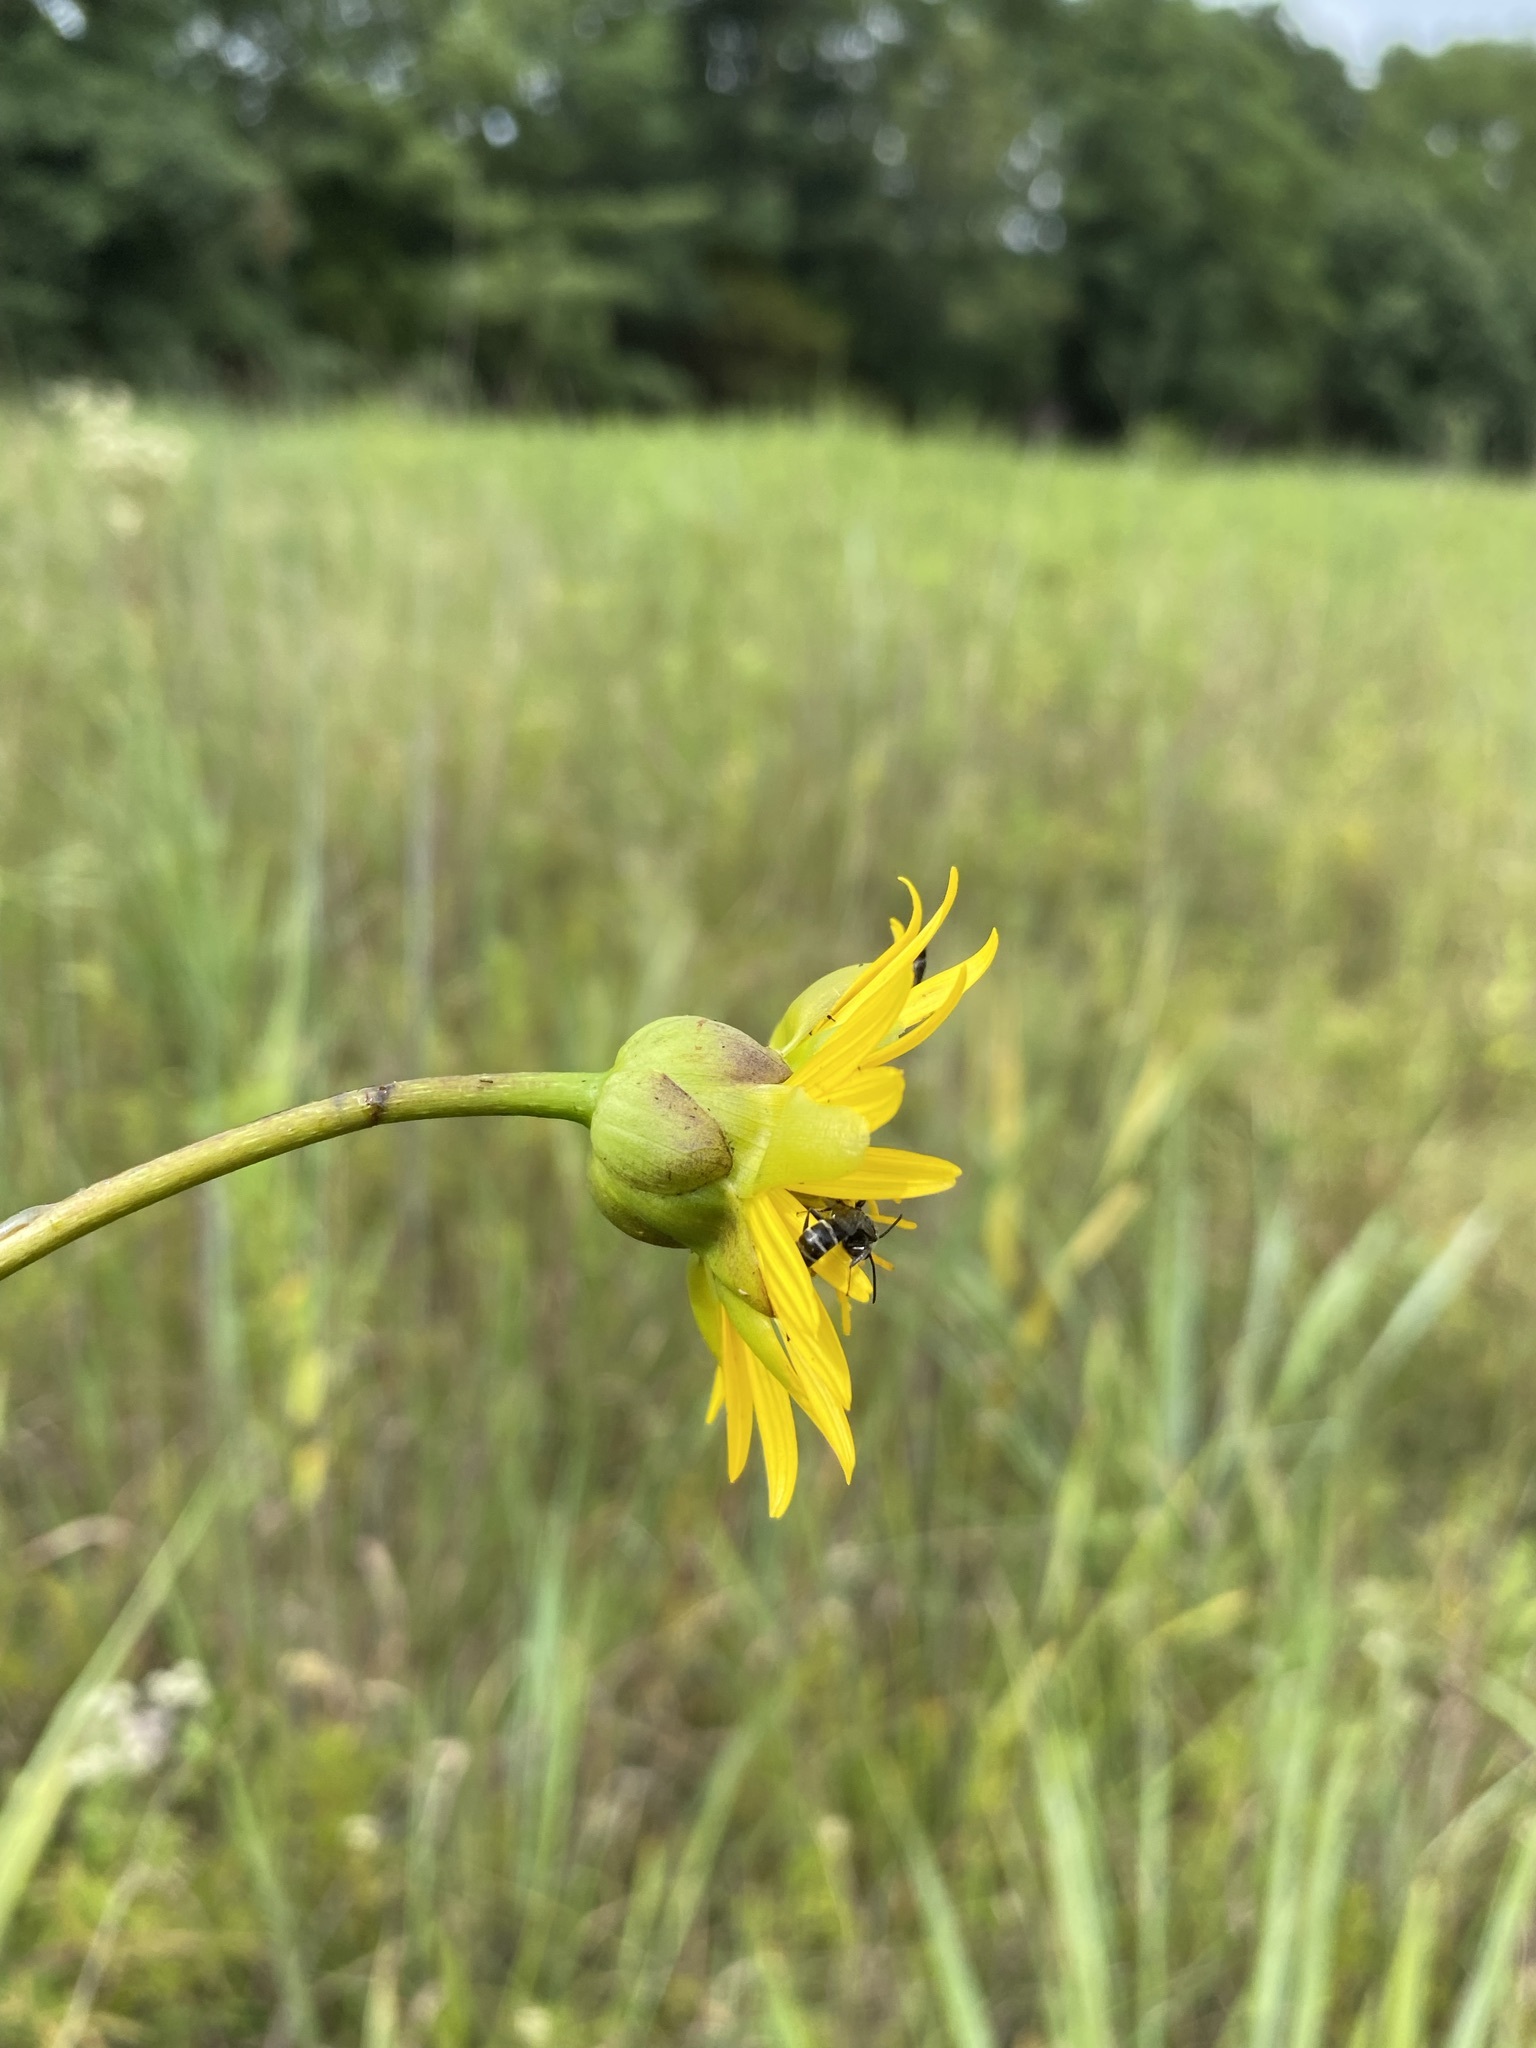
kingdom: Plantae
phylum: Tracheophyta
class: Magnoliopsida
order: Asterales
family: Asteraceae
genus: Silphium
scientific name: Silphium terebinthinaceum
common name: Basal-leaf rosinweed
